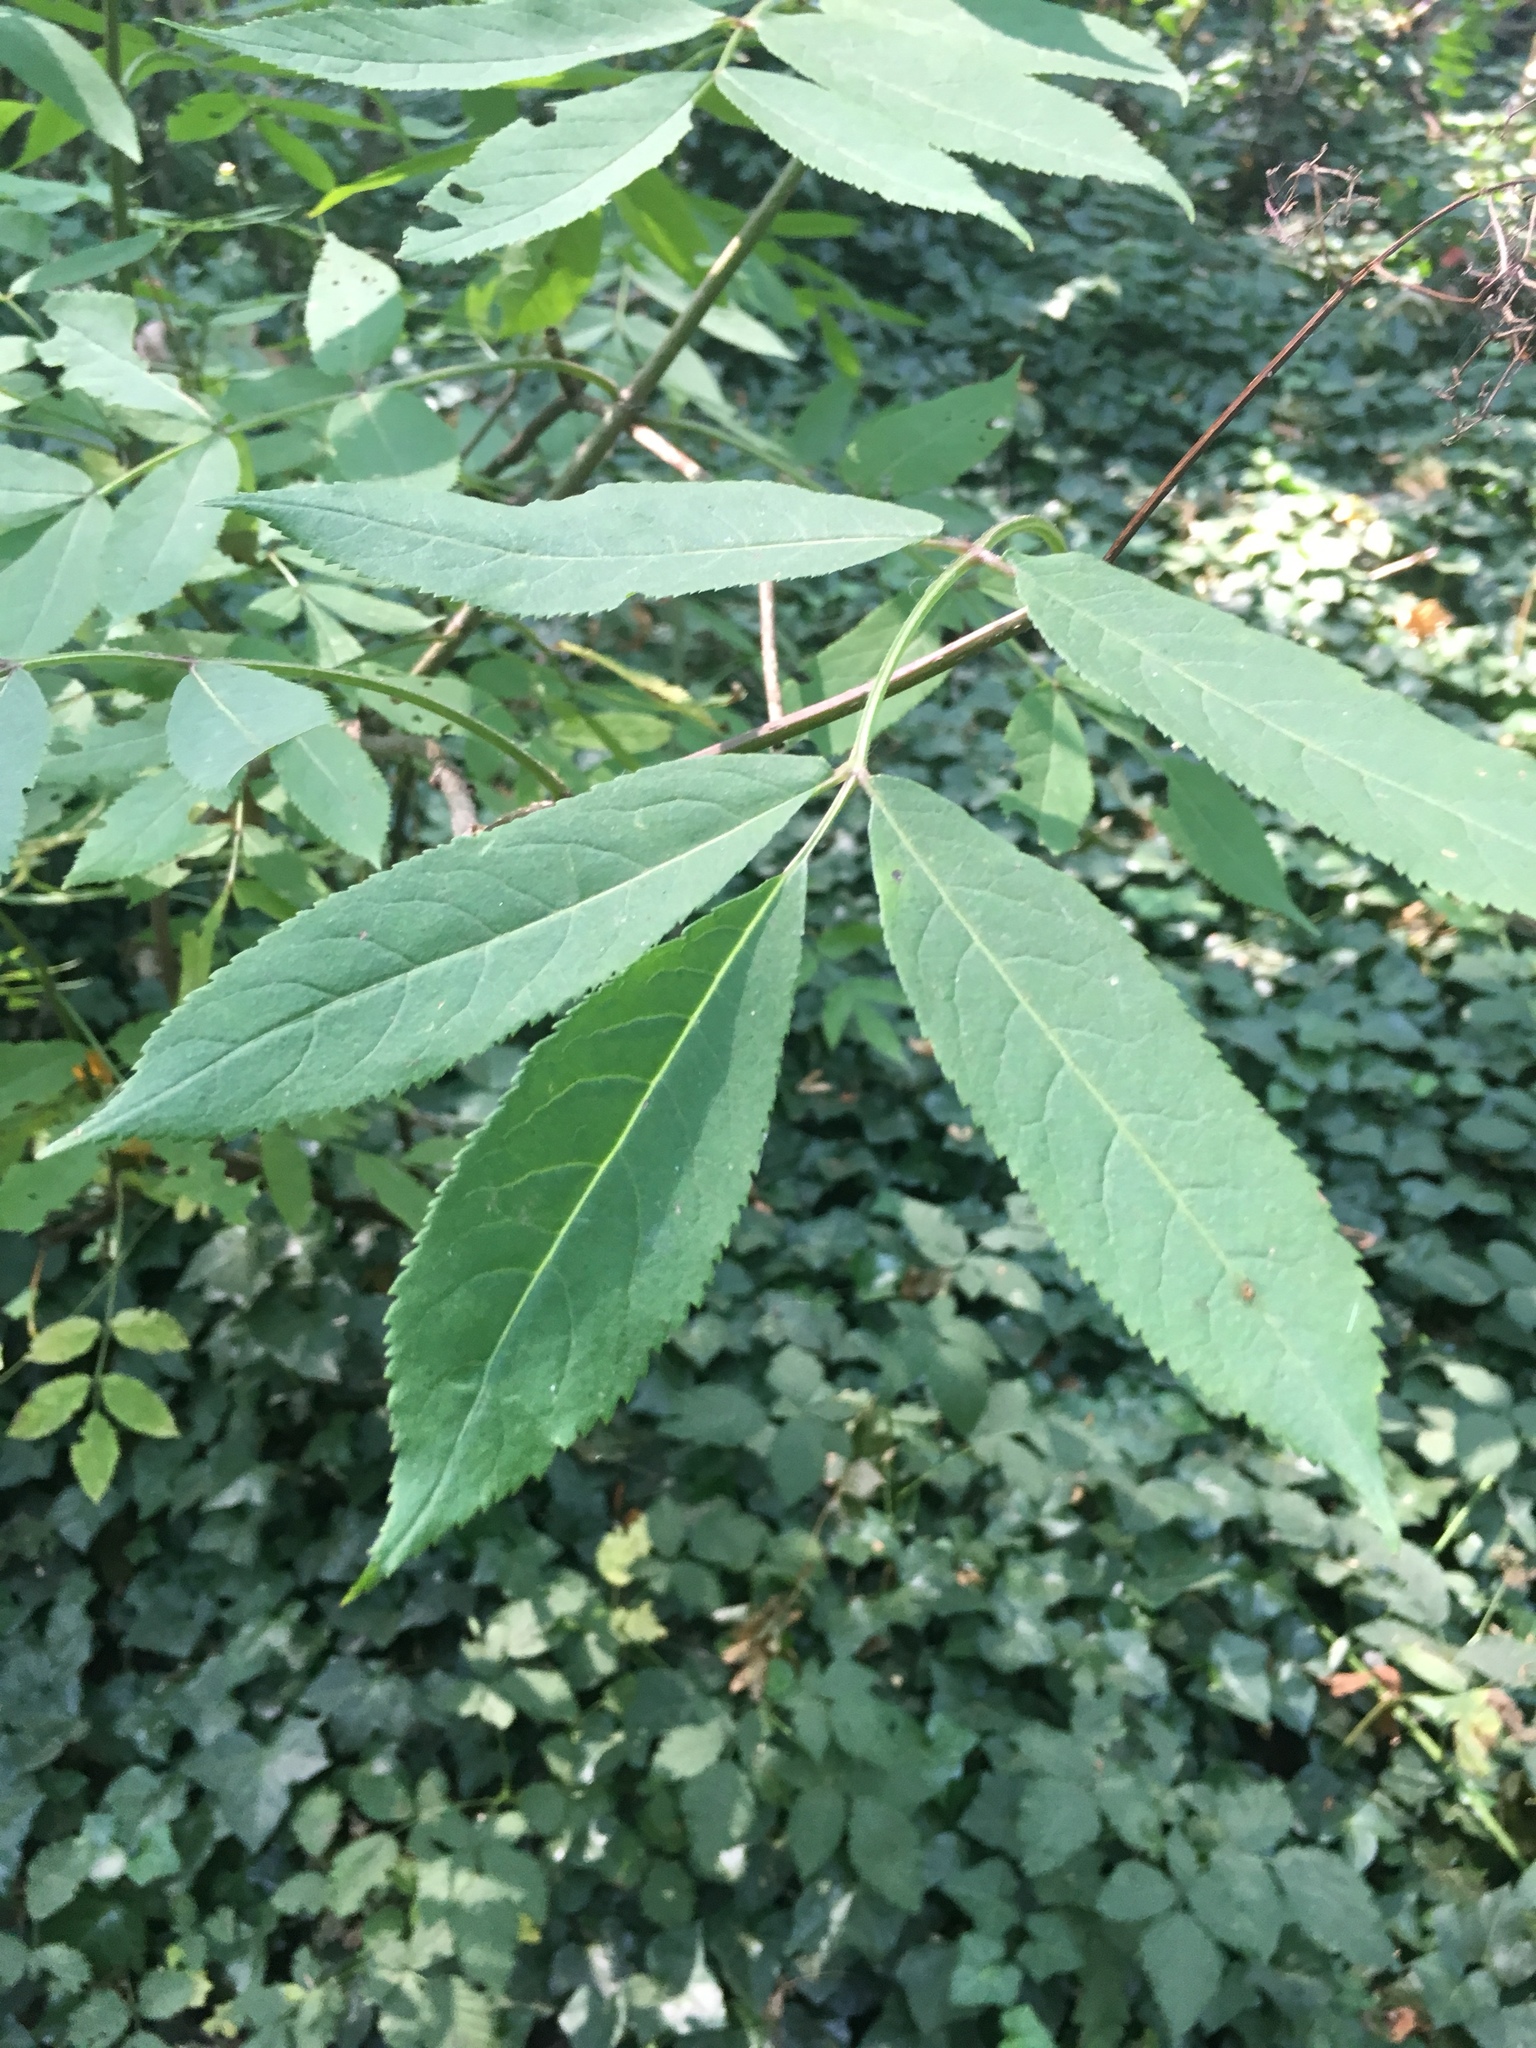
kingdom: Plantae
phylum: Tracheophyta
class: Magnoliopsida
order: Dipsacales
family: Viburnaceae
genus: Sambucus
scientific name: Sambucus racemosa
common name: Red-berried elder
